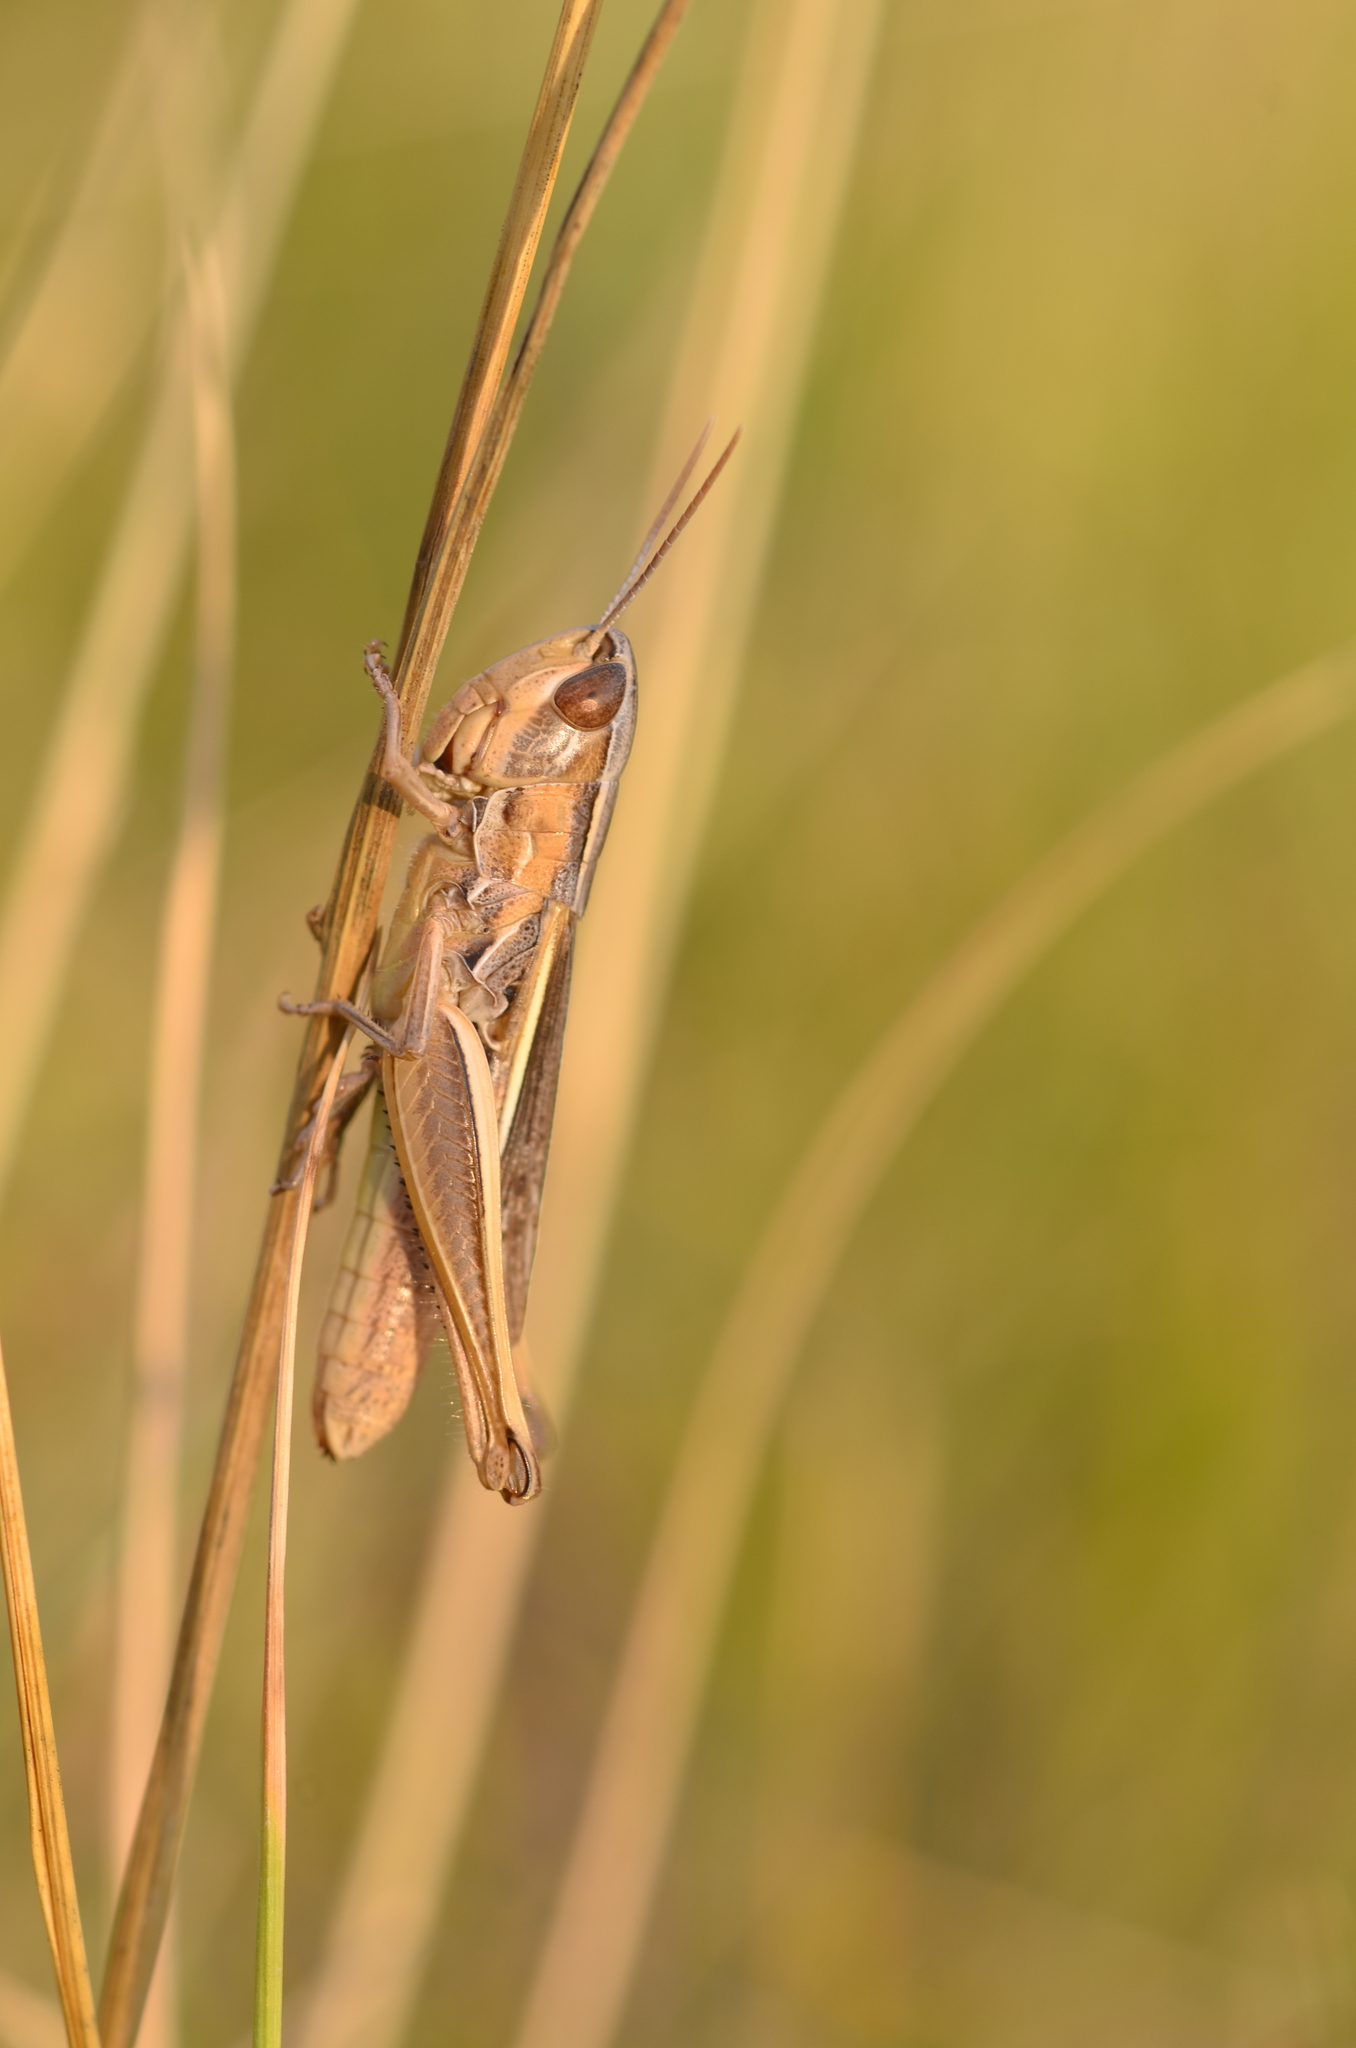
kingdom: Animalia
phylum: Arthropoda
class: Insecta
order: Orthoptera
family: Acrididae
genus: Euchorthippus
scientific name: Euchorthippus elegantulus
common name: Elegant straw grasshopper
